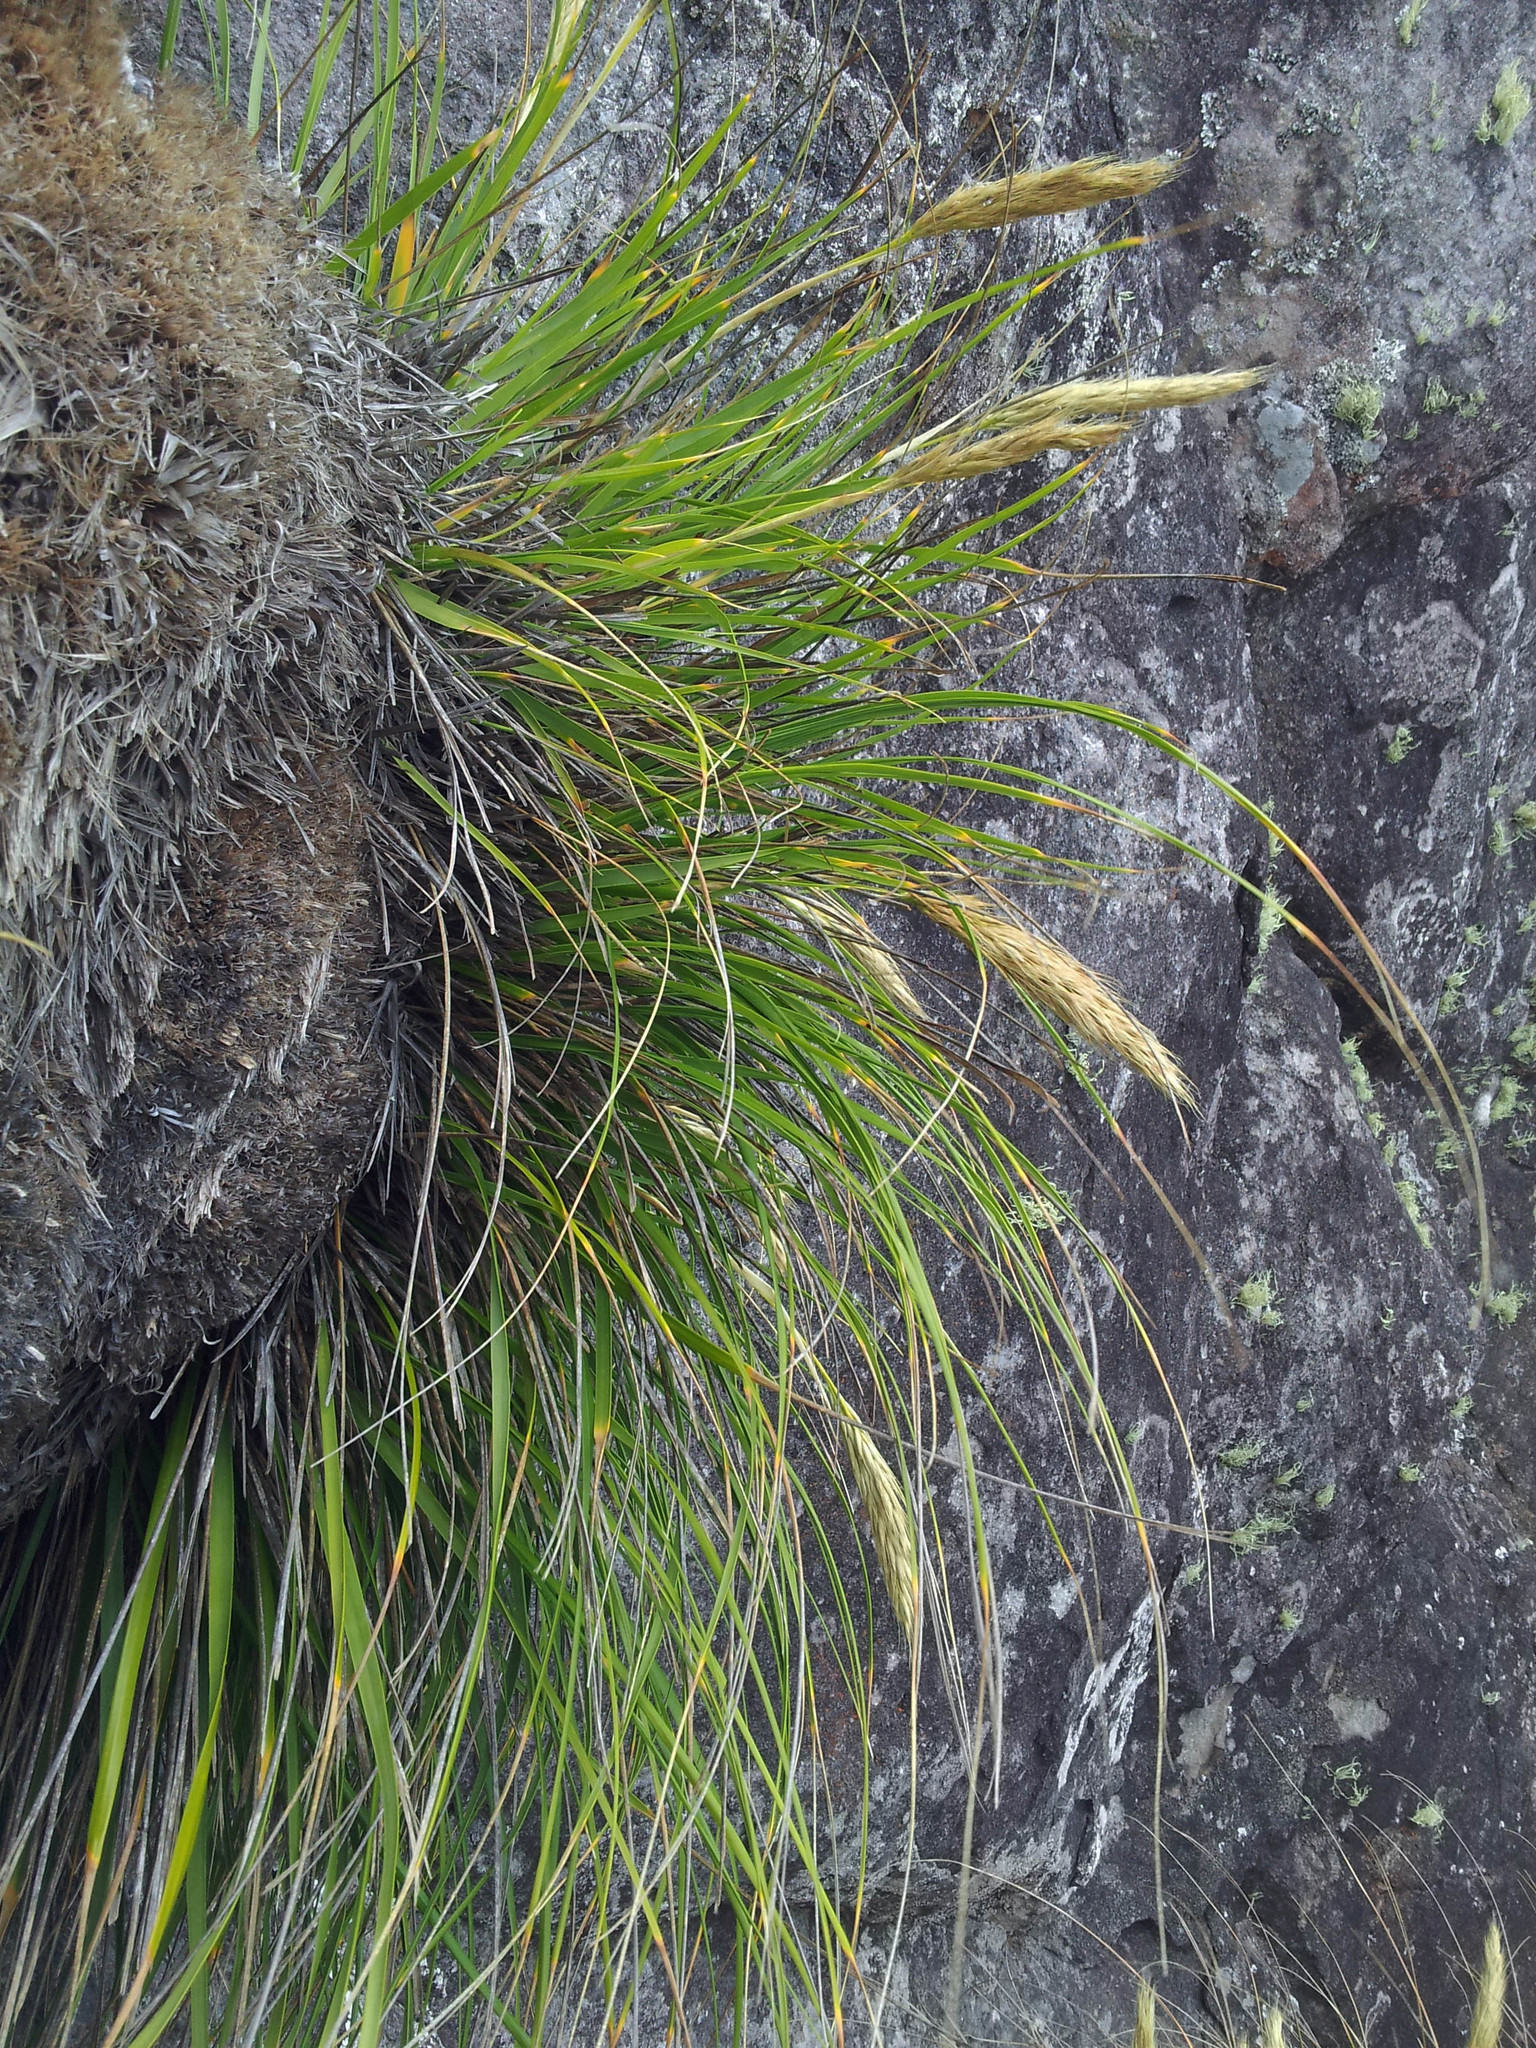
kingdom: Plantae
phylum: Tracheophyta
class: Liliopsida
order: Poales
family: Poaceae
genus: Chionochloa
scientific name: Chionochloa bromoides
